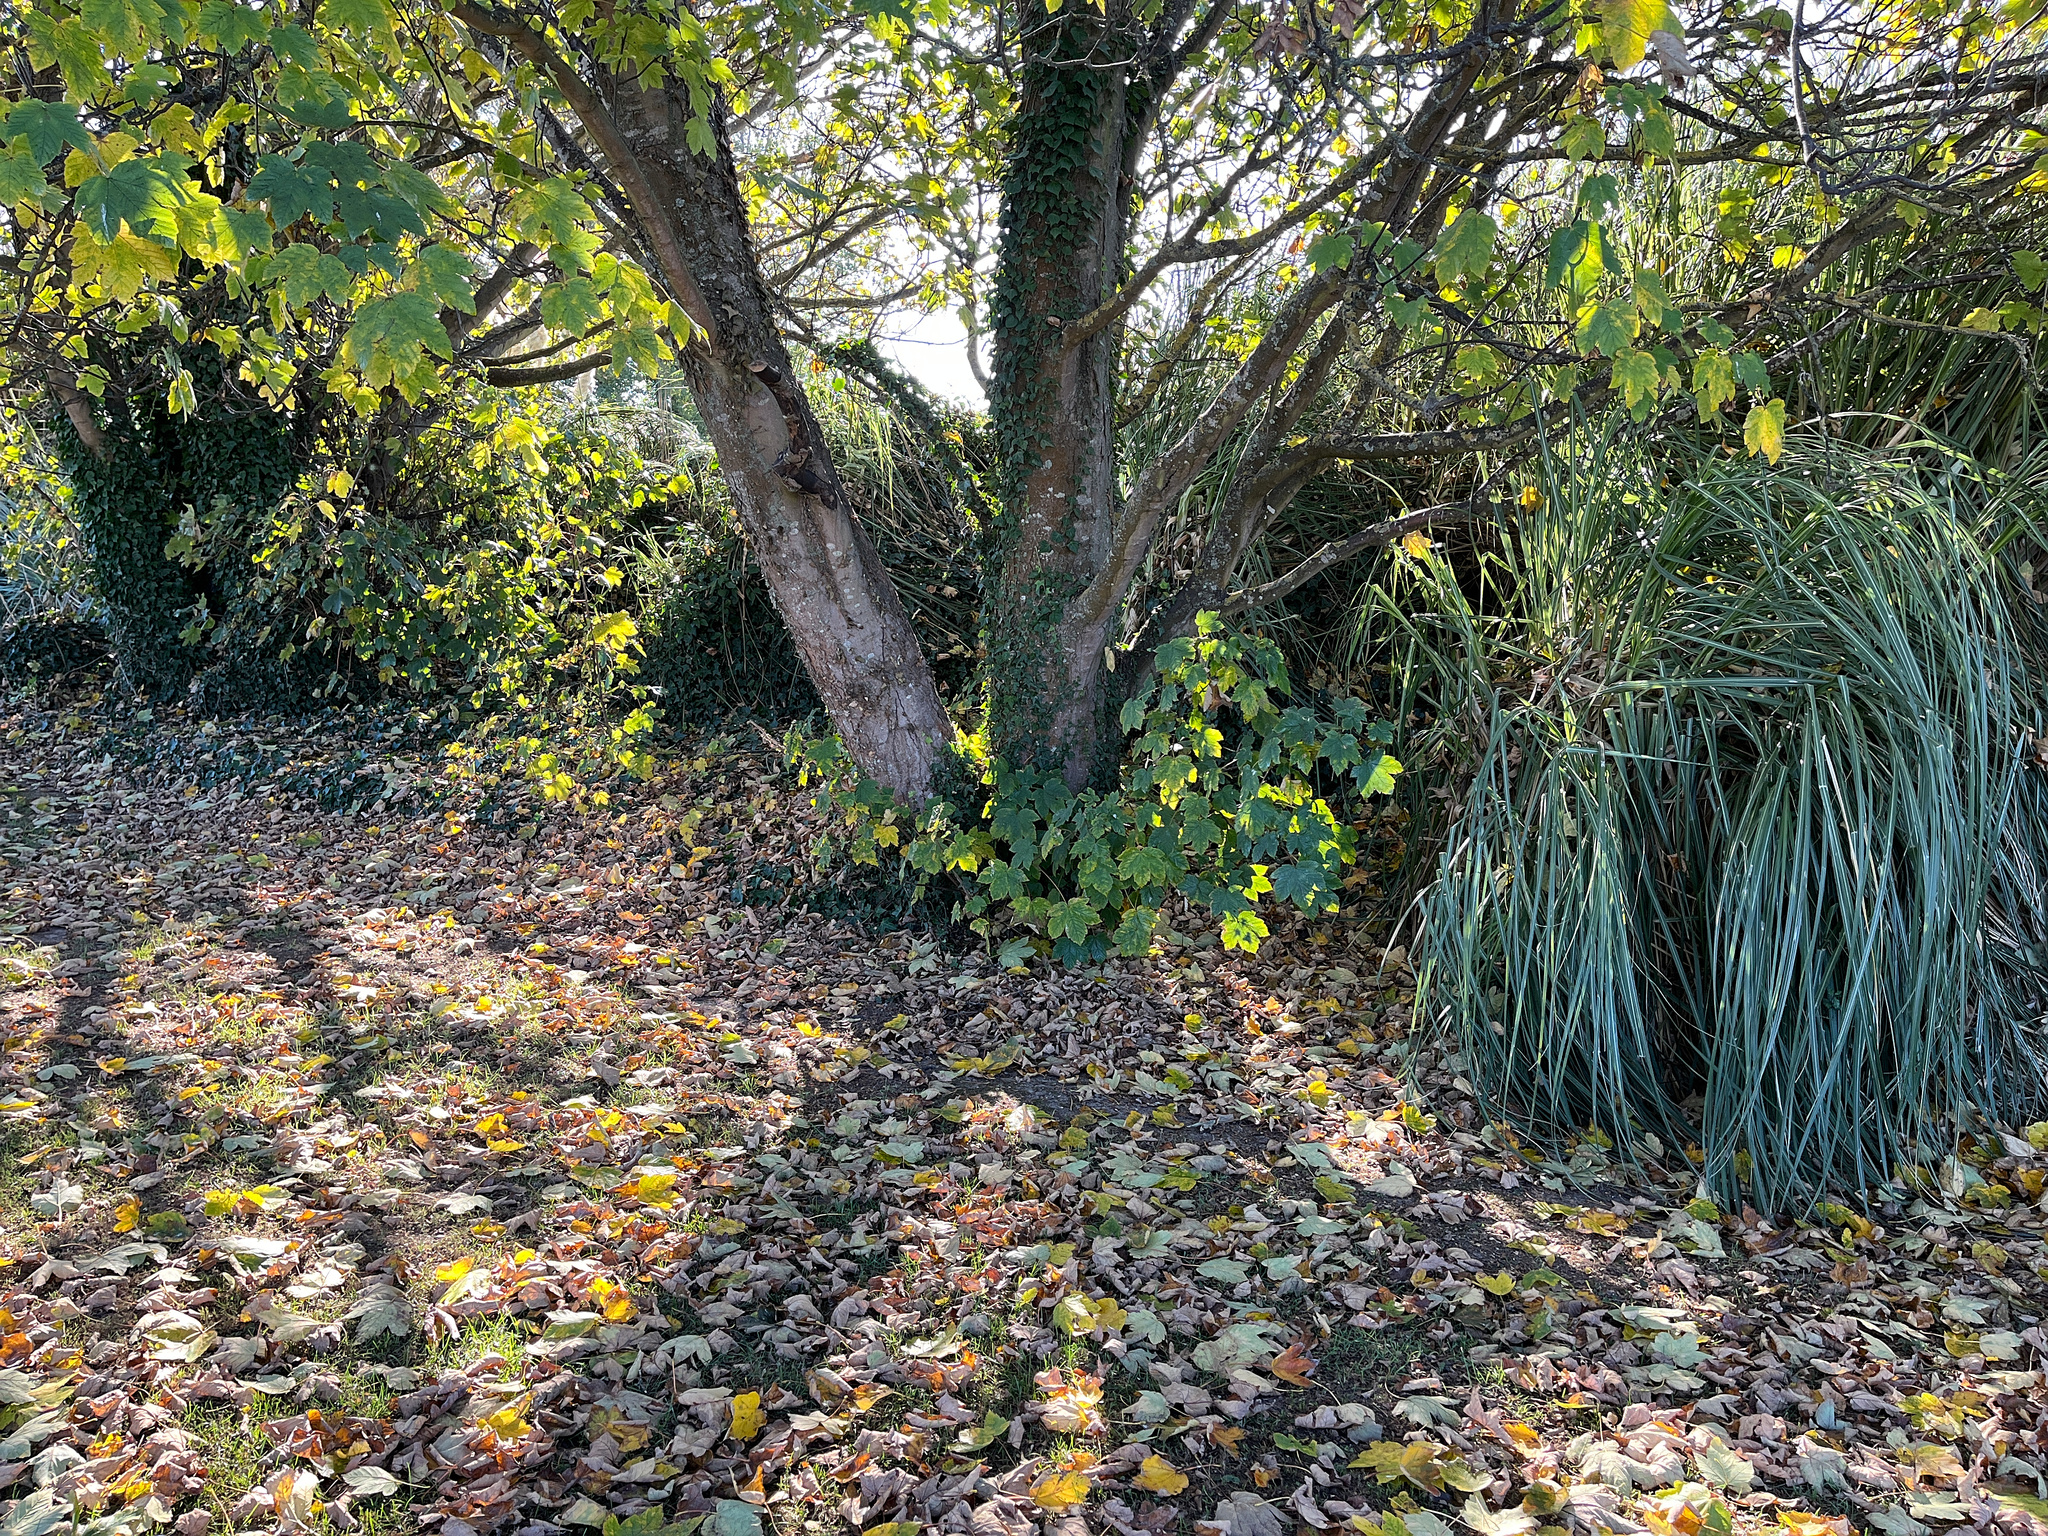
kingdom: Plantae
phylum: Tracheophyta
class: Magnoliopsida
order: Sapindales
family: Sapindaceae
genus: Acer
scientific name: Acer pseudoplatanus
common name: Sycamore
